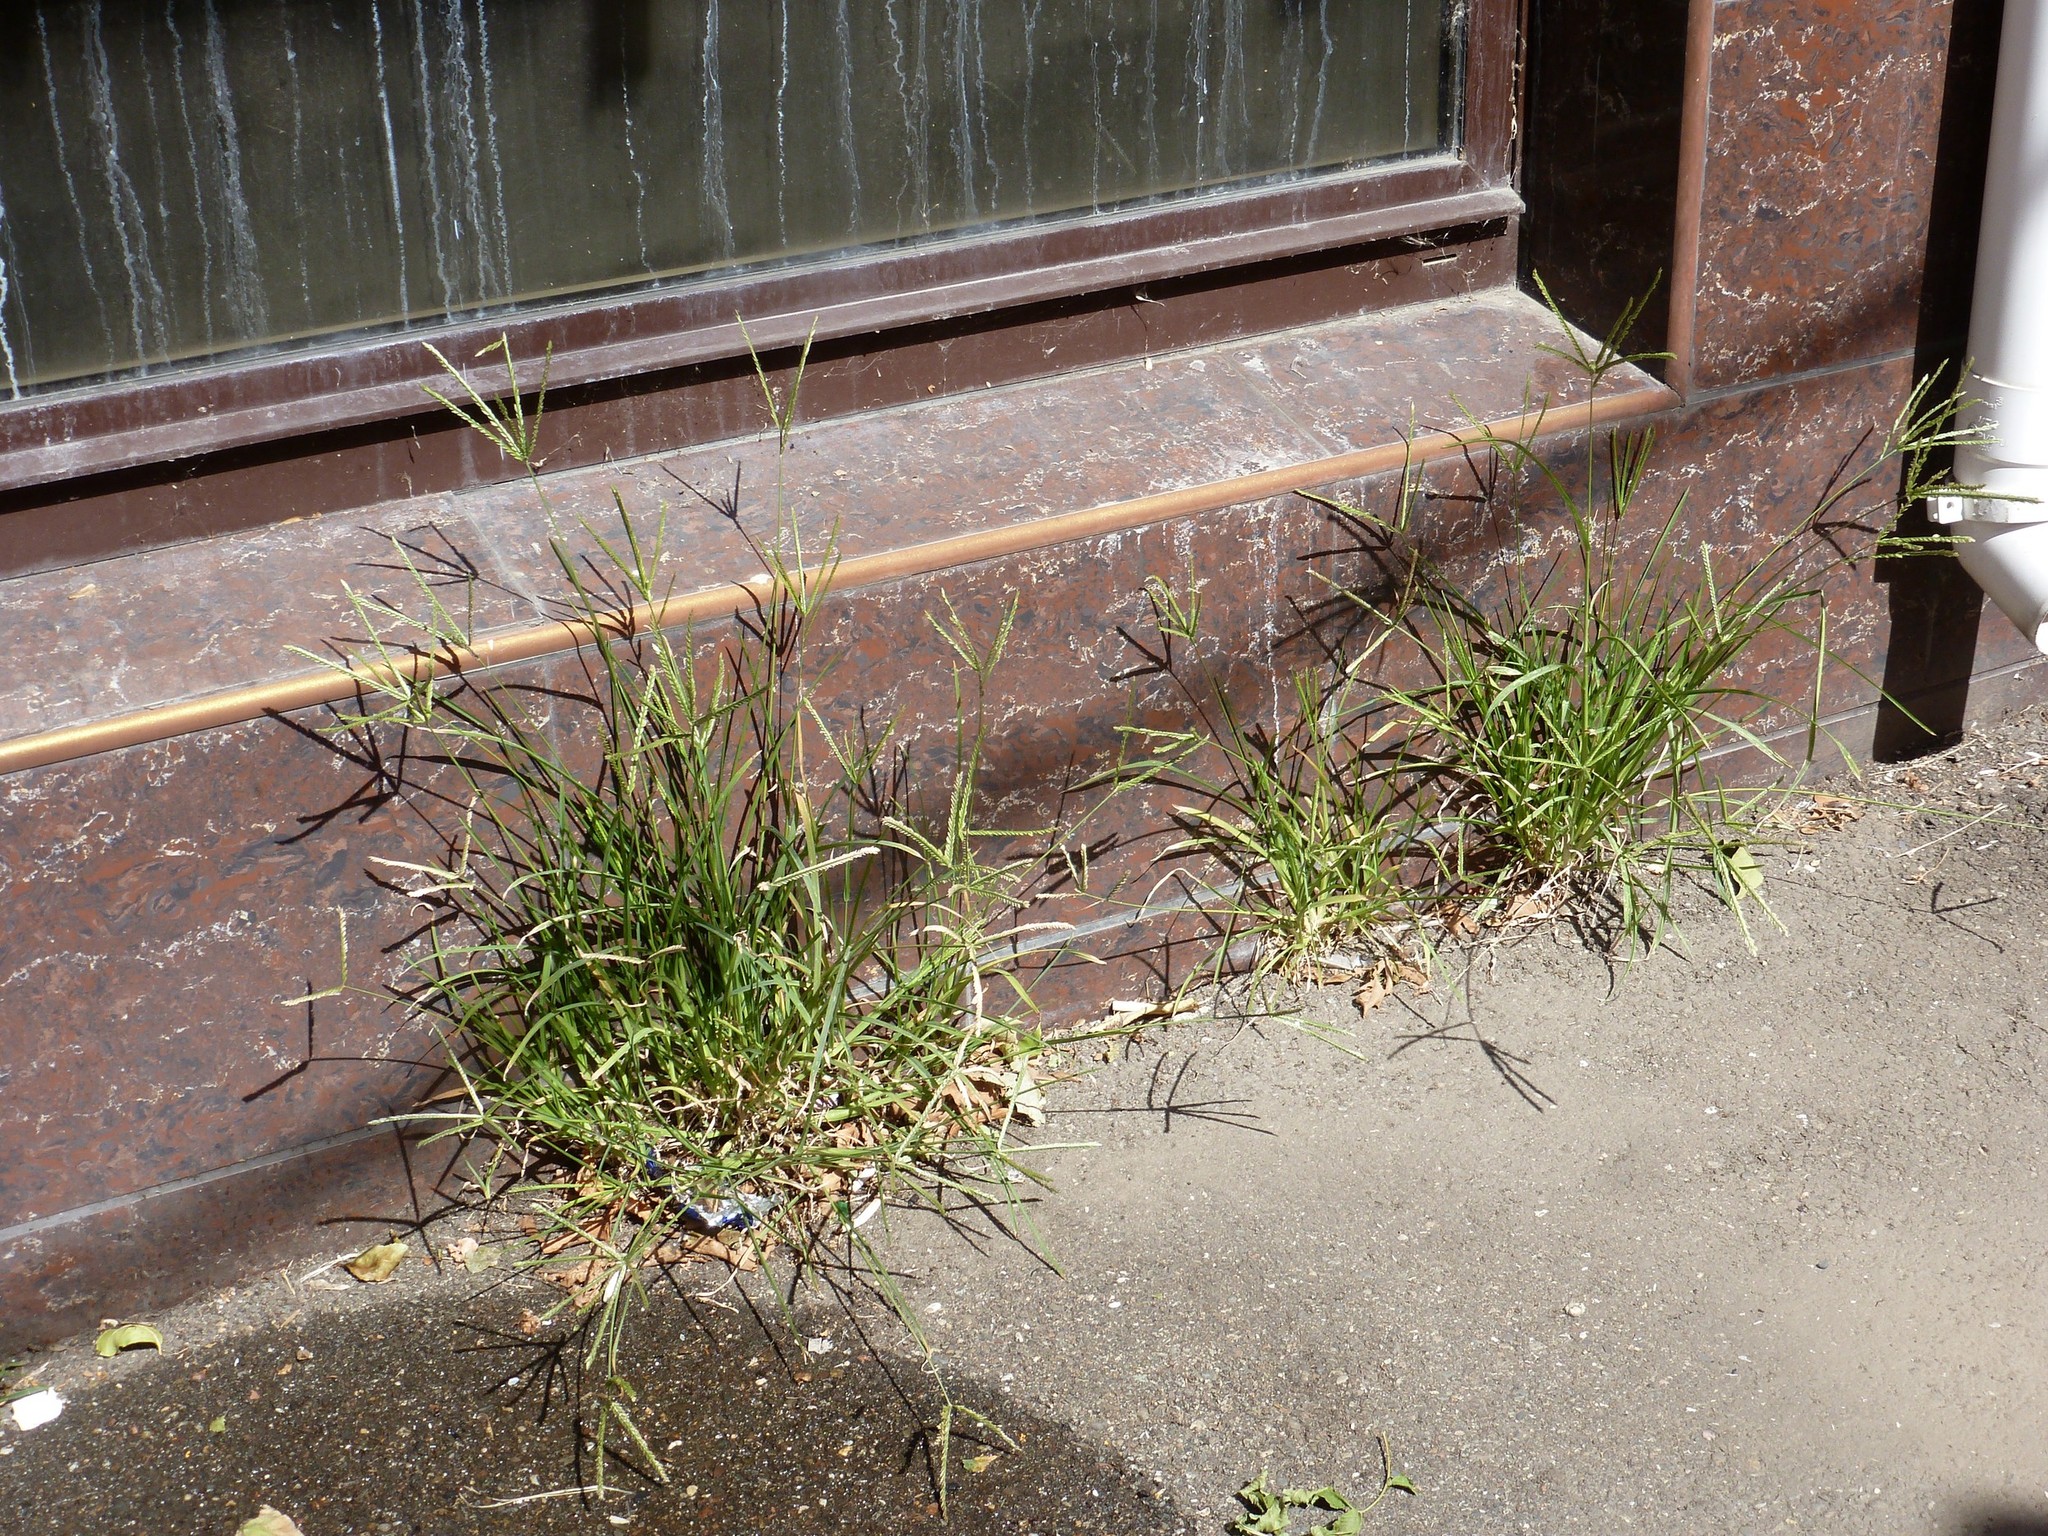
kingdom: Plantae
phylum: Tracheophyta
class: Liliopsida
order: Poales
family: Poaceae
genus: Eleusine
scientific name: Eleusine indica
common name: Yard-grass
